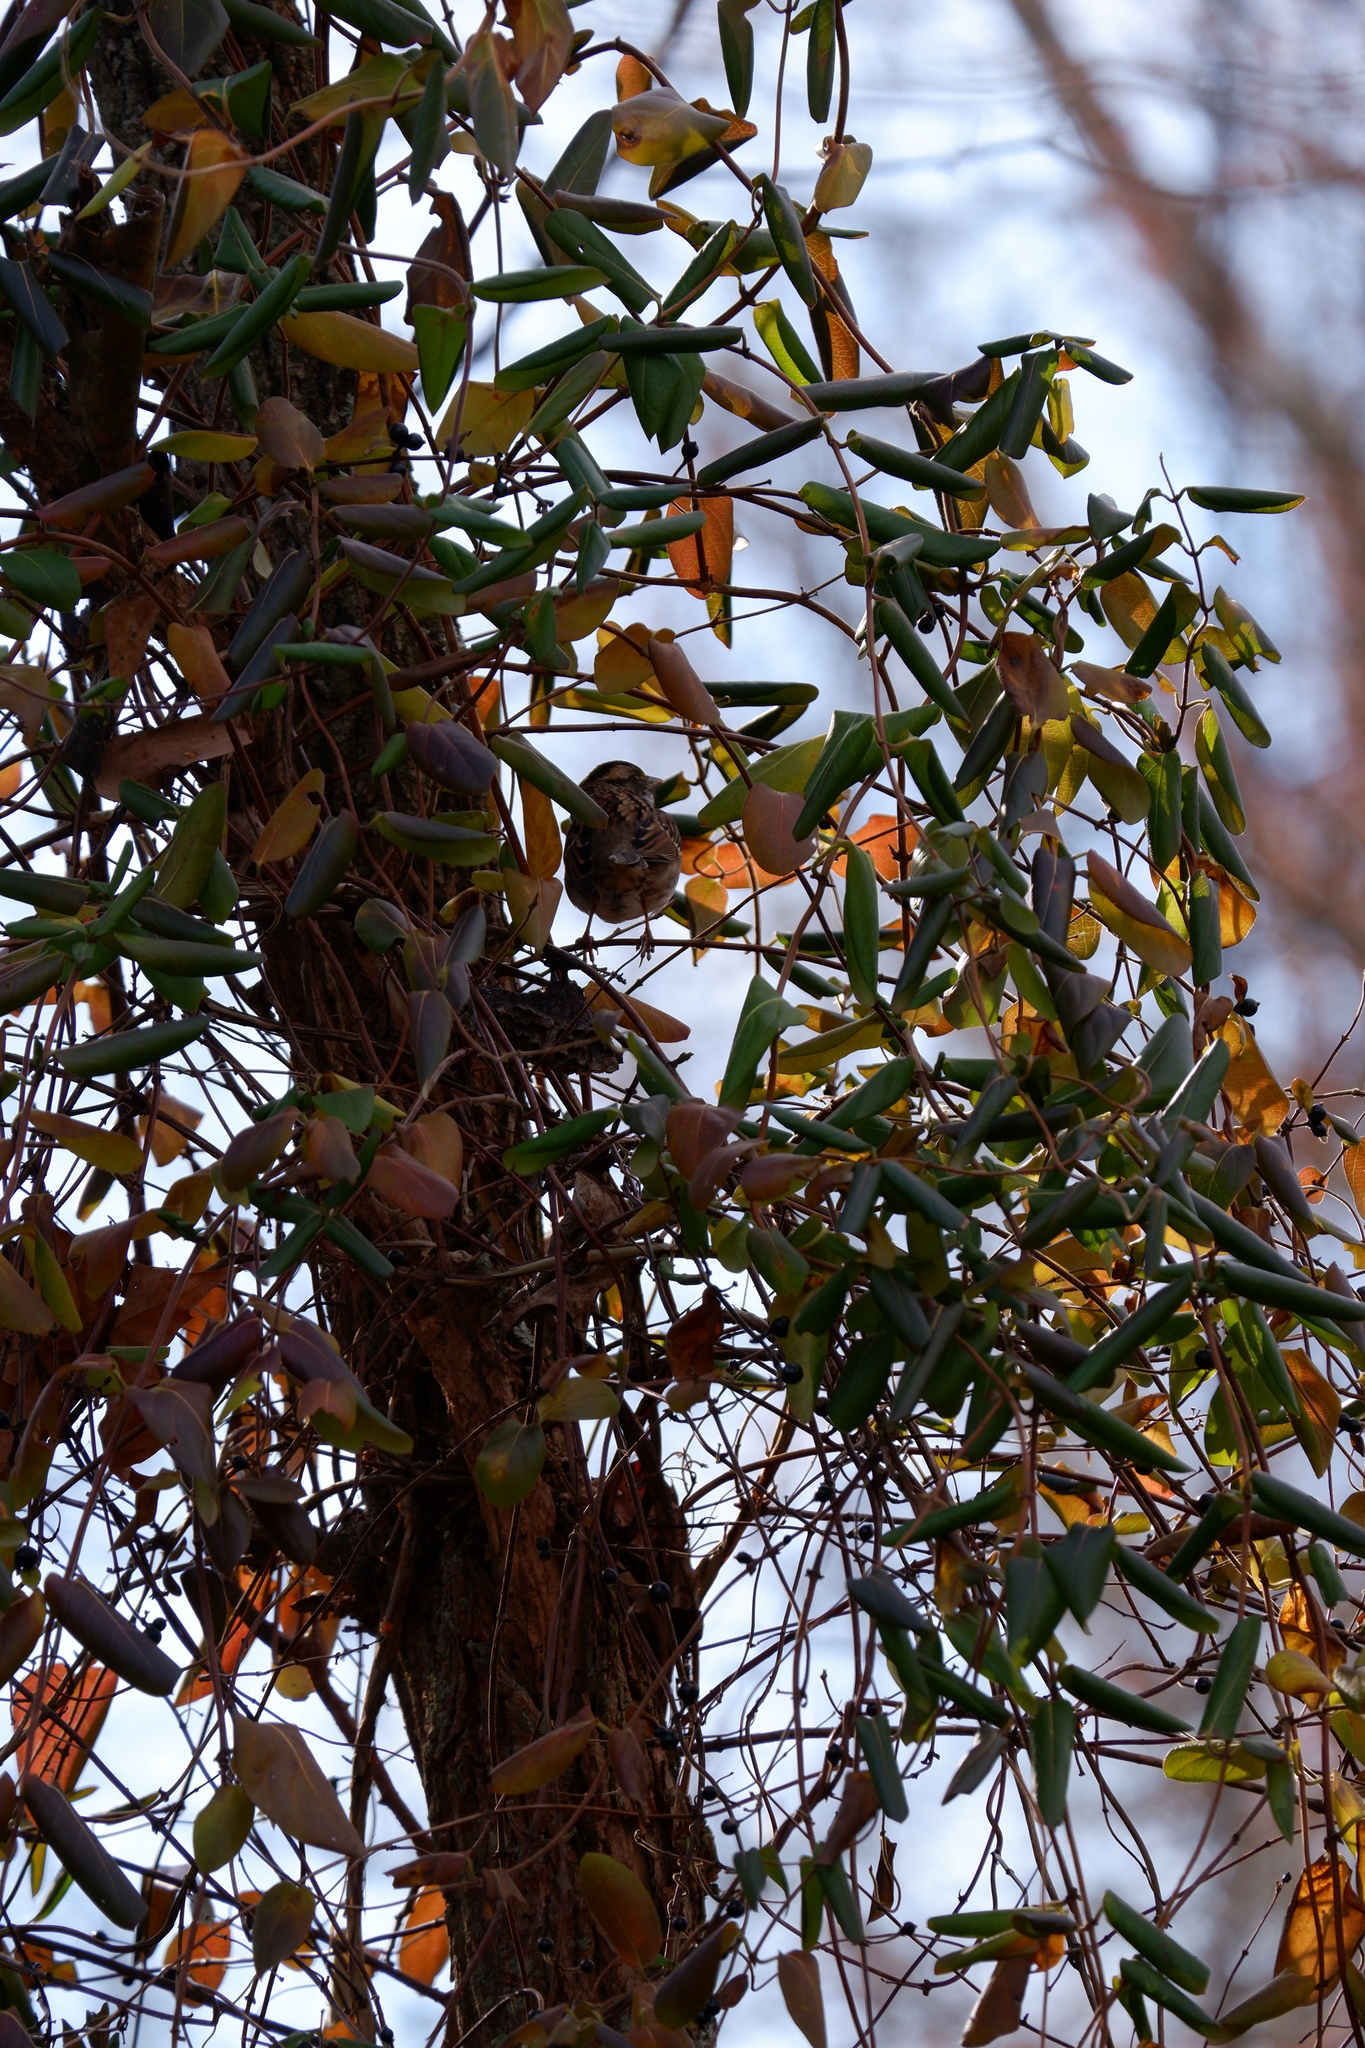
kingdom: Animalia
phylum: Chordata
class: Aves
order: Passeriformes
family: Passerellidae
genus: Zonotrichia
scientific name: Zonotrichia albicollis
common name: White-throated sparrow
